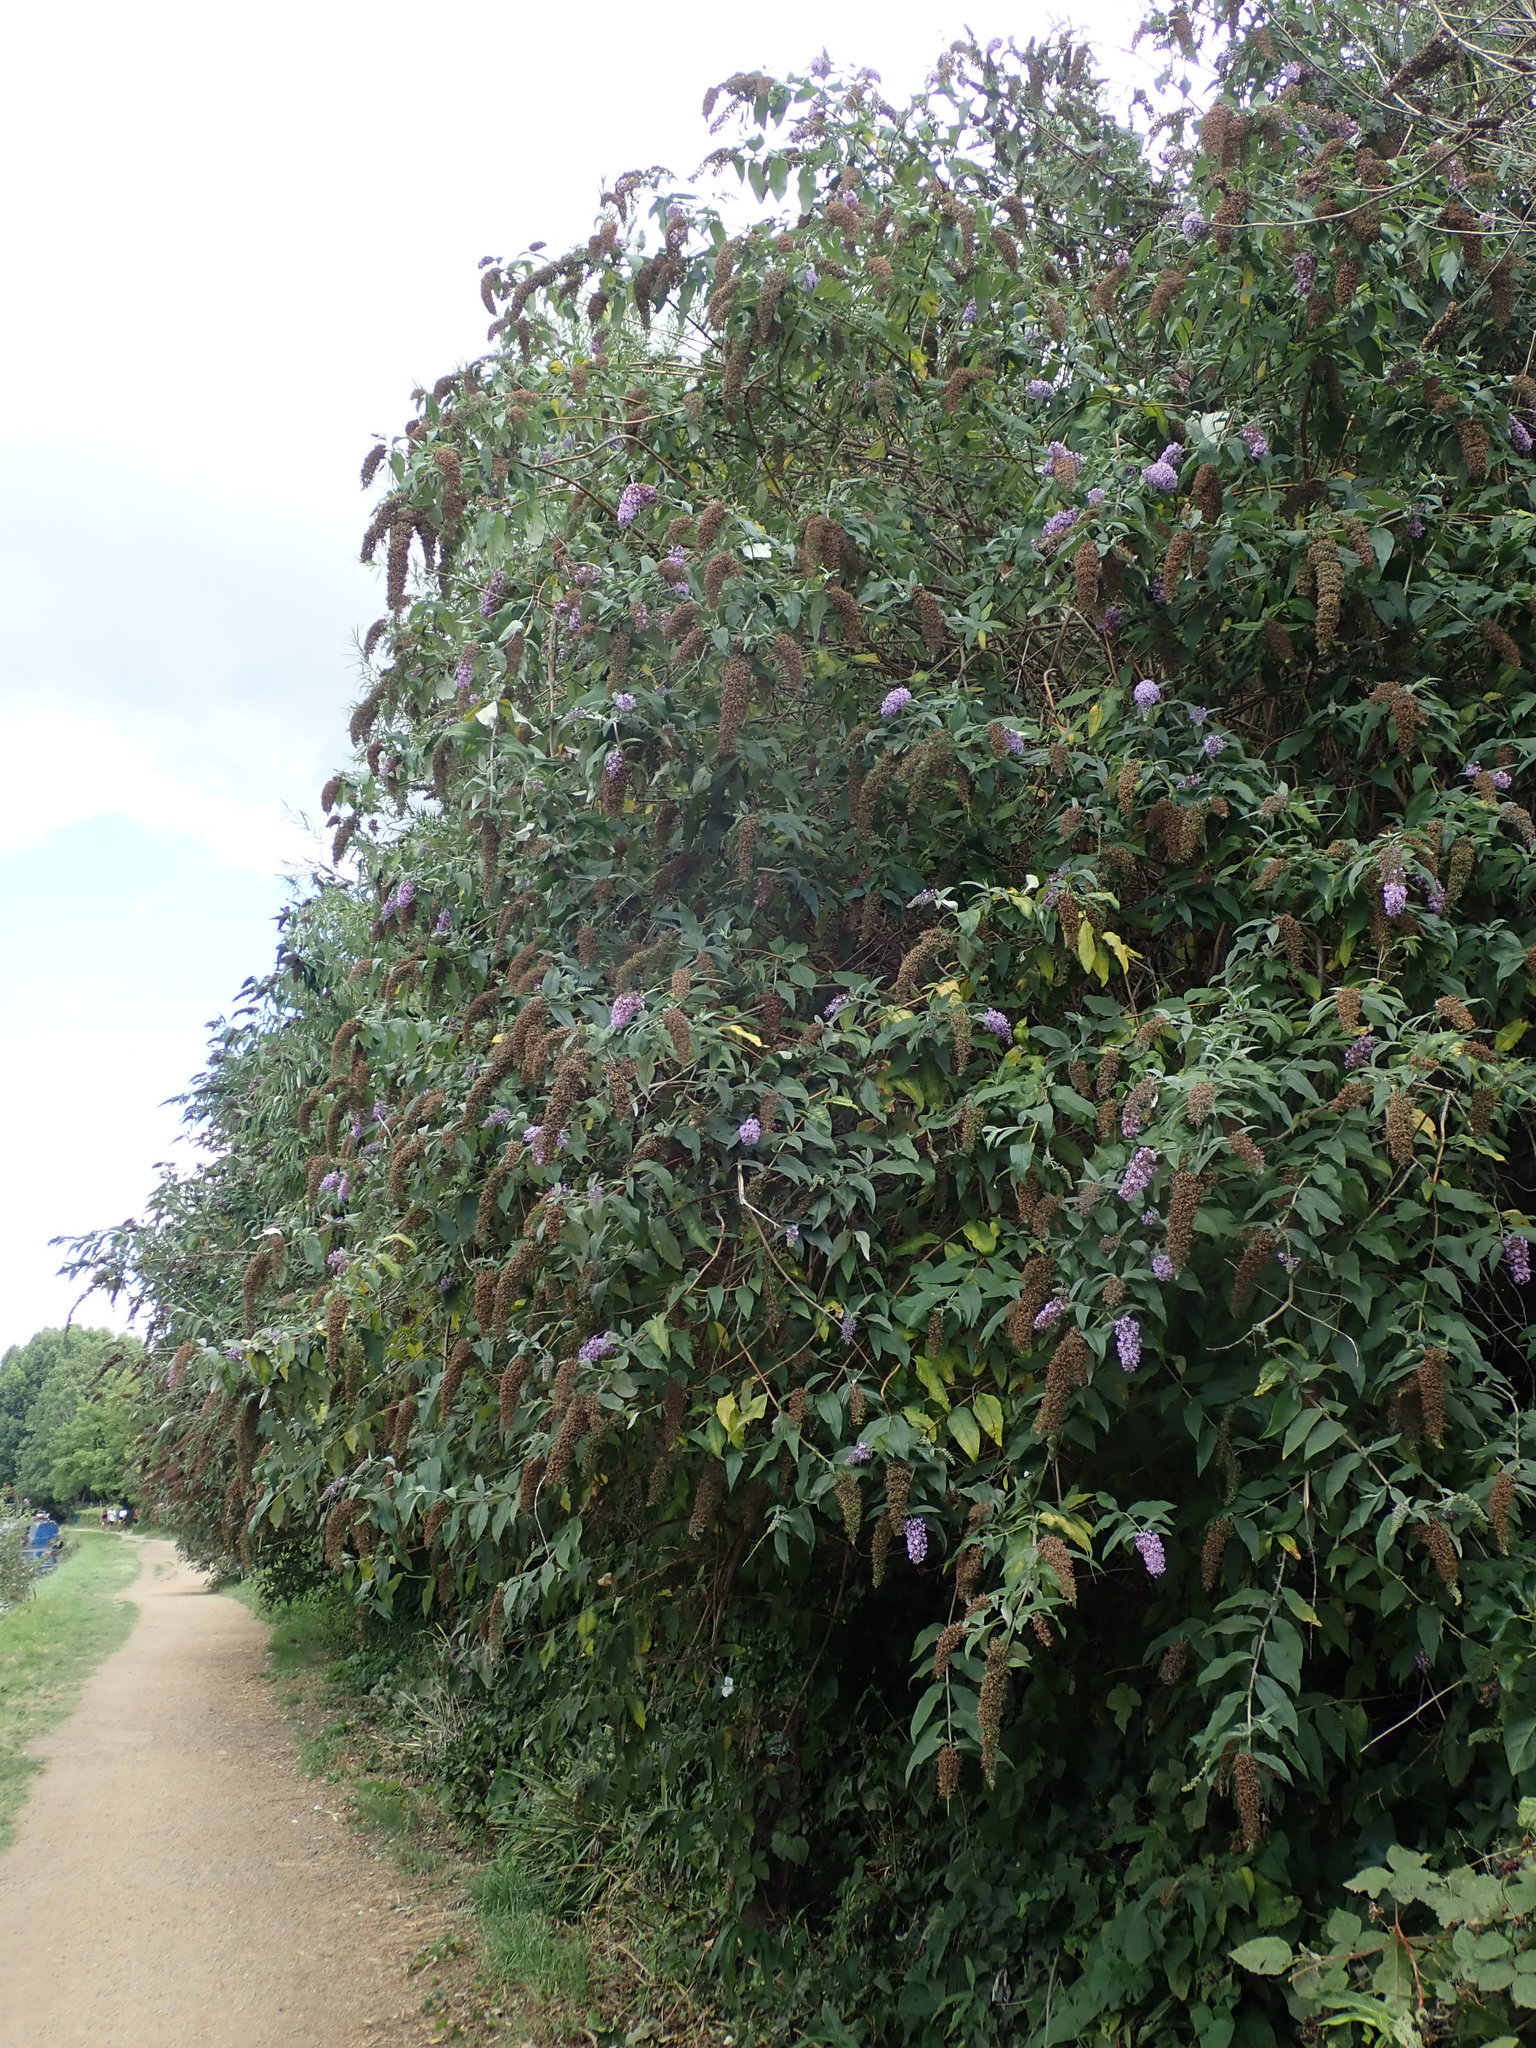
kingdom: Plantae
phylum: Tracheophyta
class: Magnoliopsida
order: Lamiales
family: Scrophulariaceae
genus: Buddleja
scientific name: Buddleja davidii
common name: Butterfly-bush
